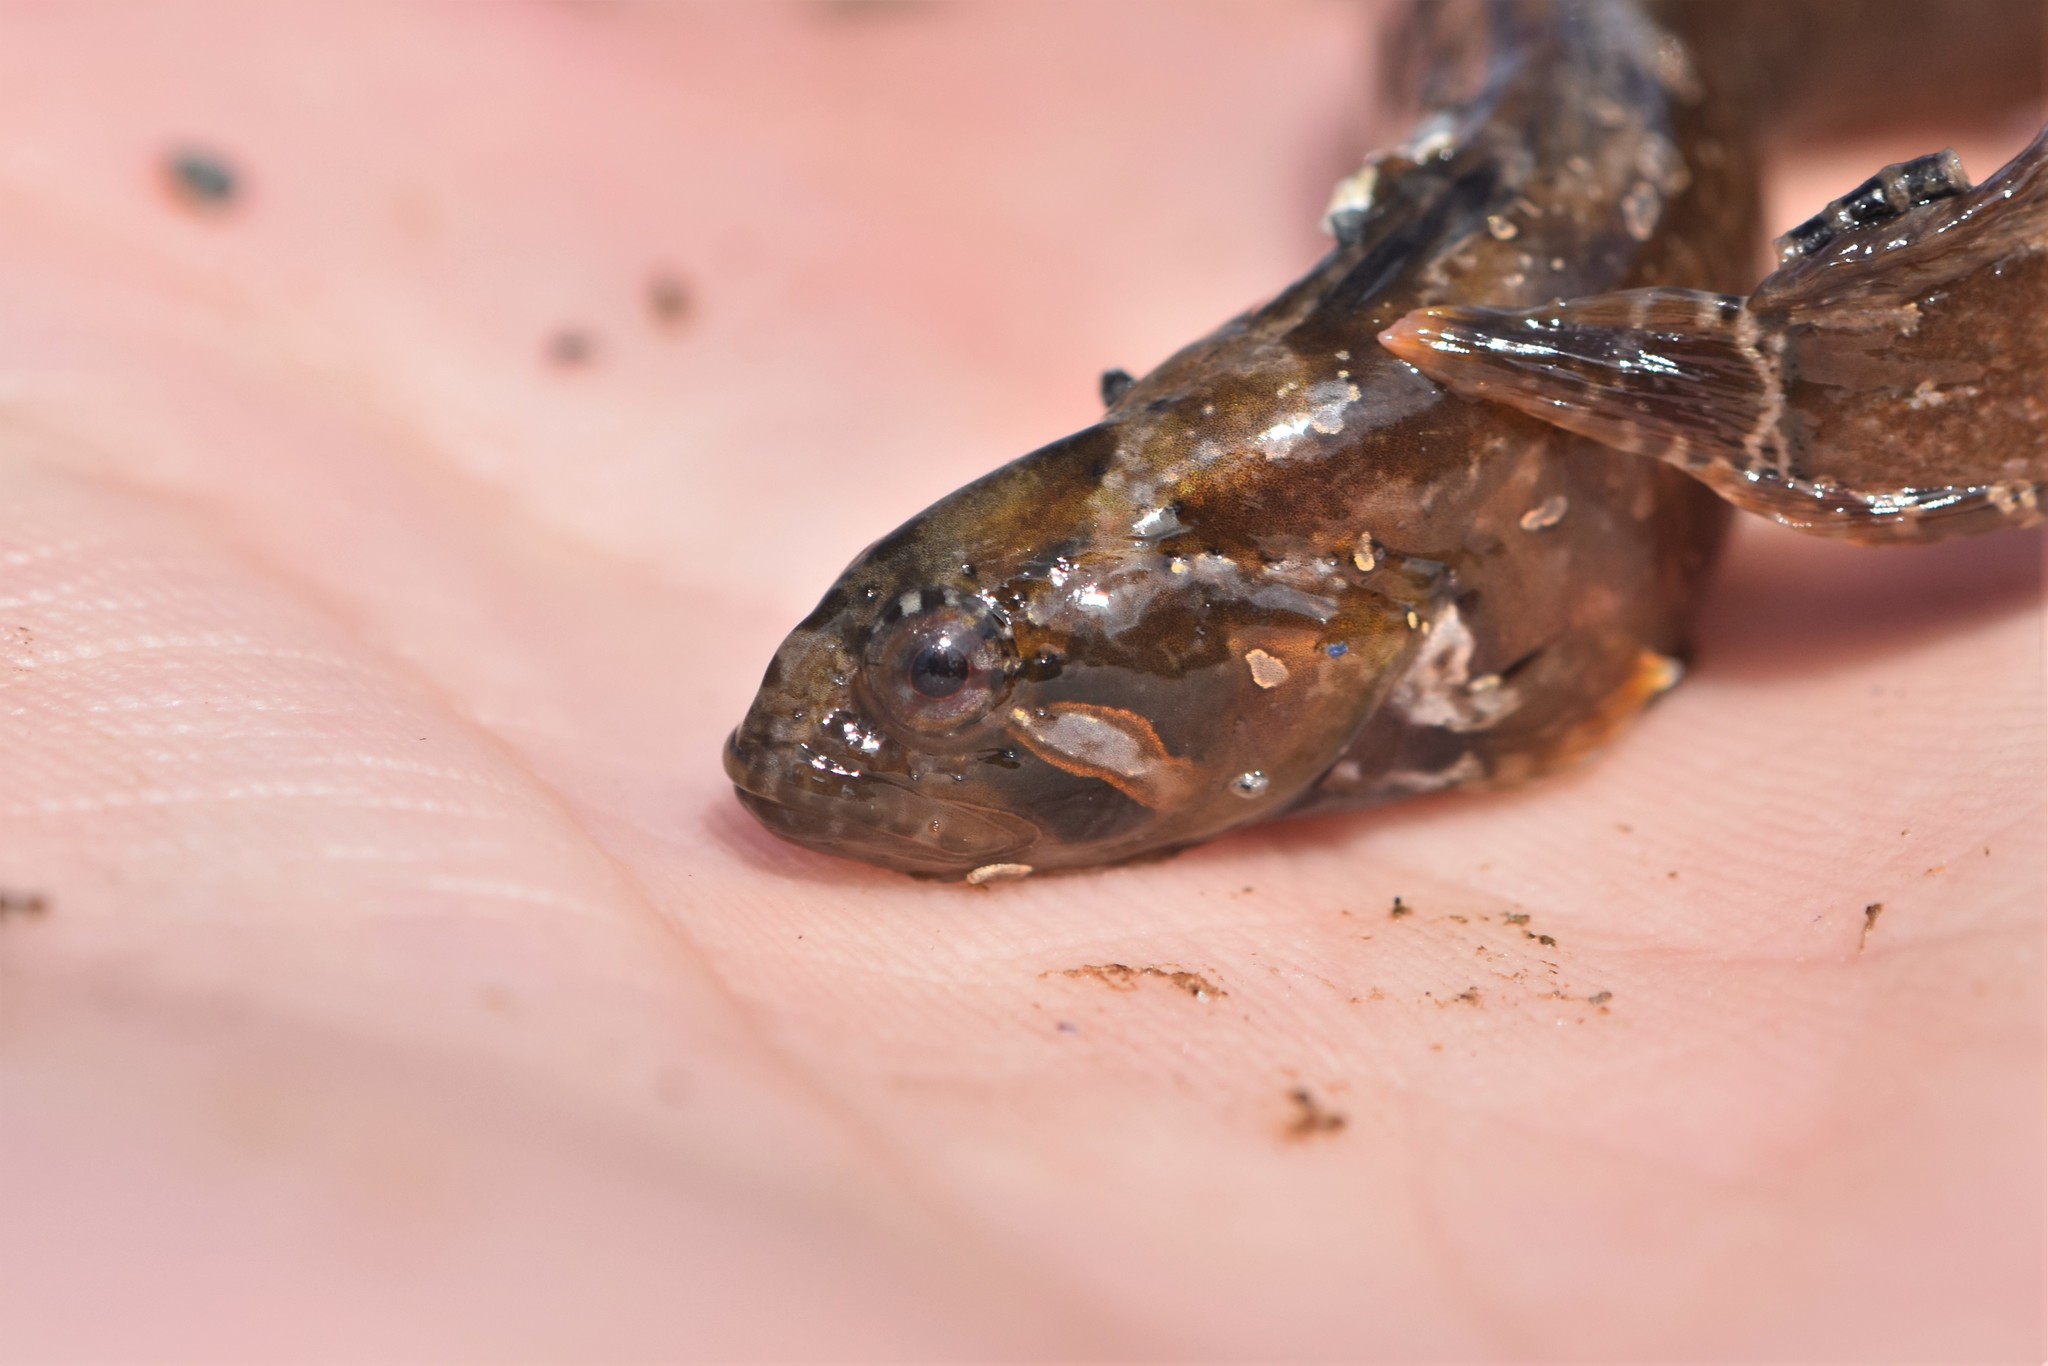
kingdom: Animalia
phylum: Chordata
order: Perciformes
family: Stichaeidae
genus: Anoplarchus
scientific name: Anoplarchus purpurescens
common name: High cockscomb
